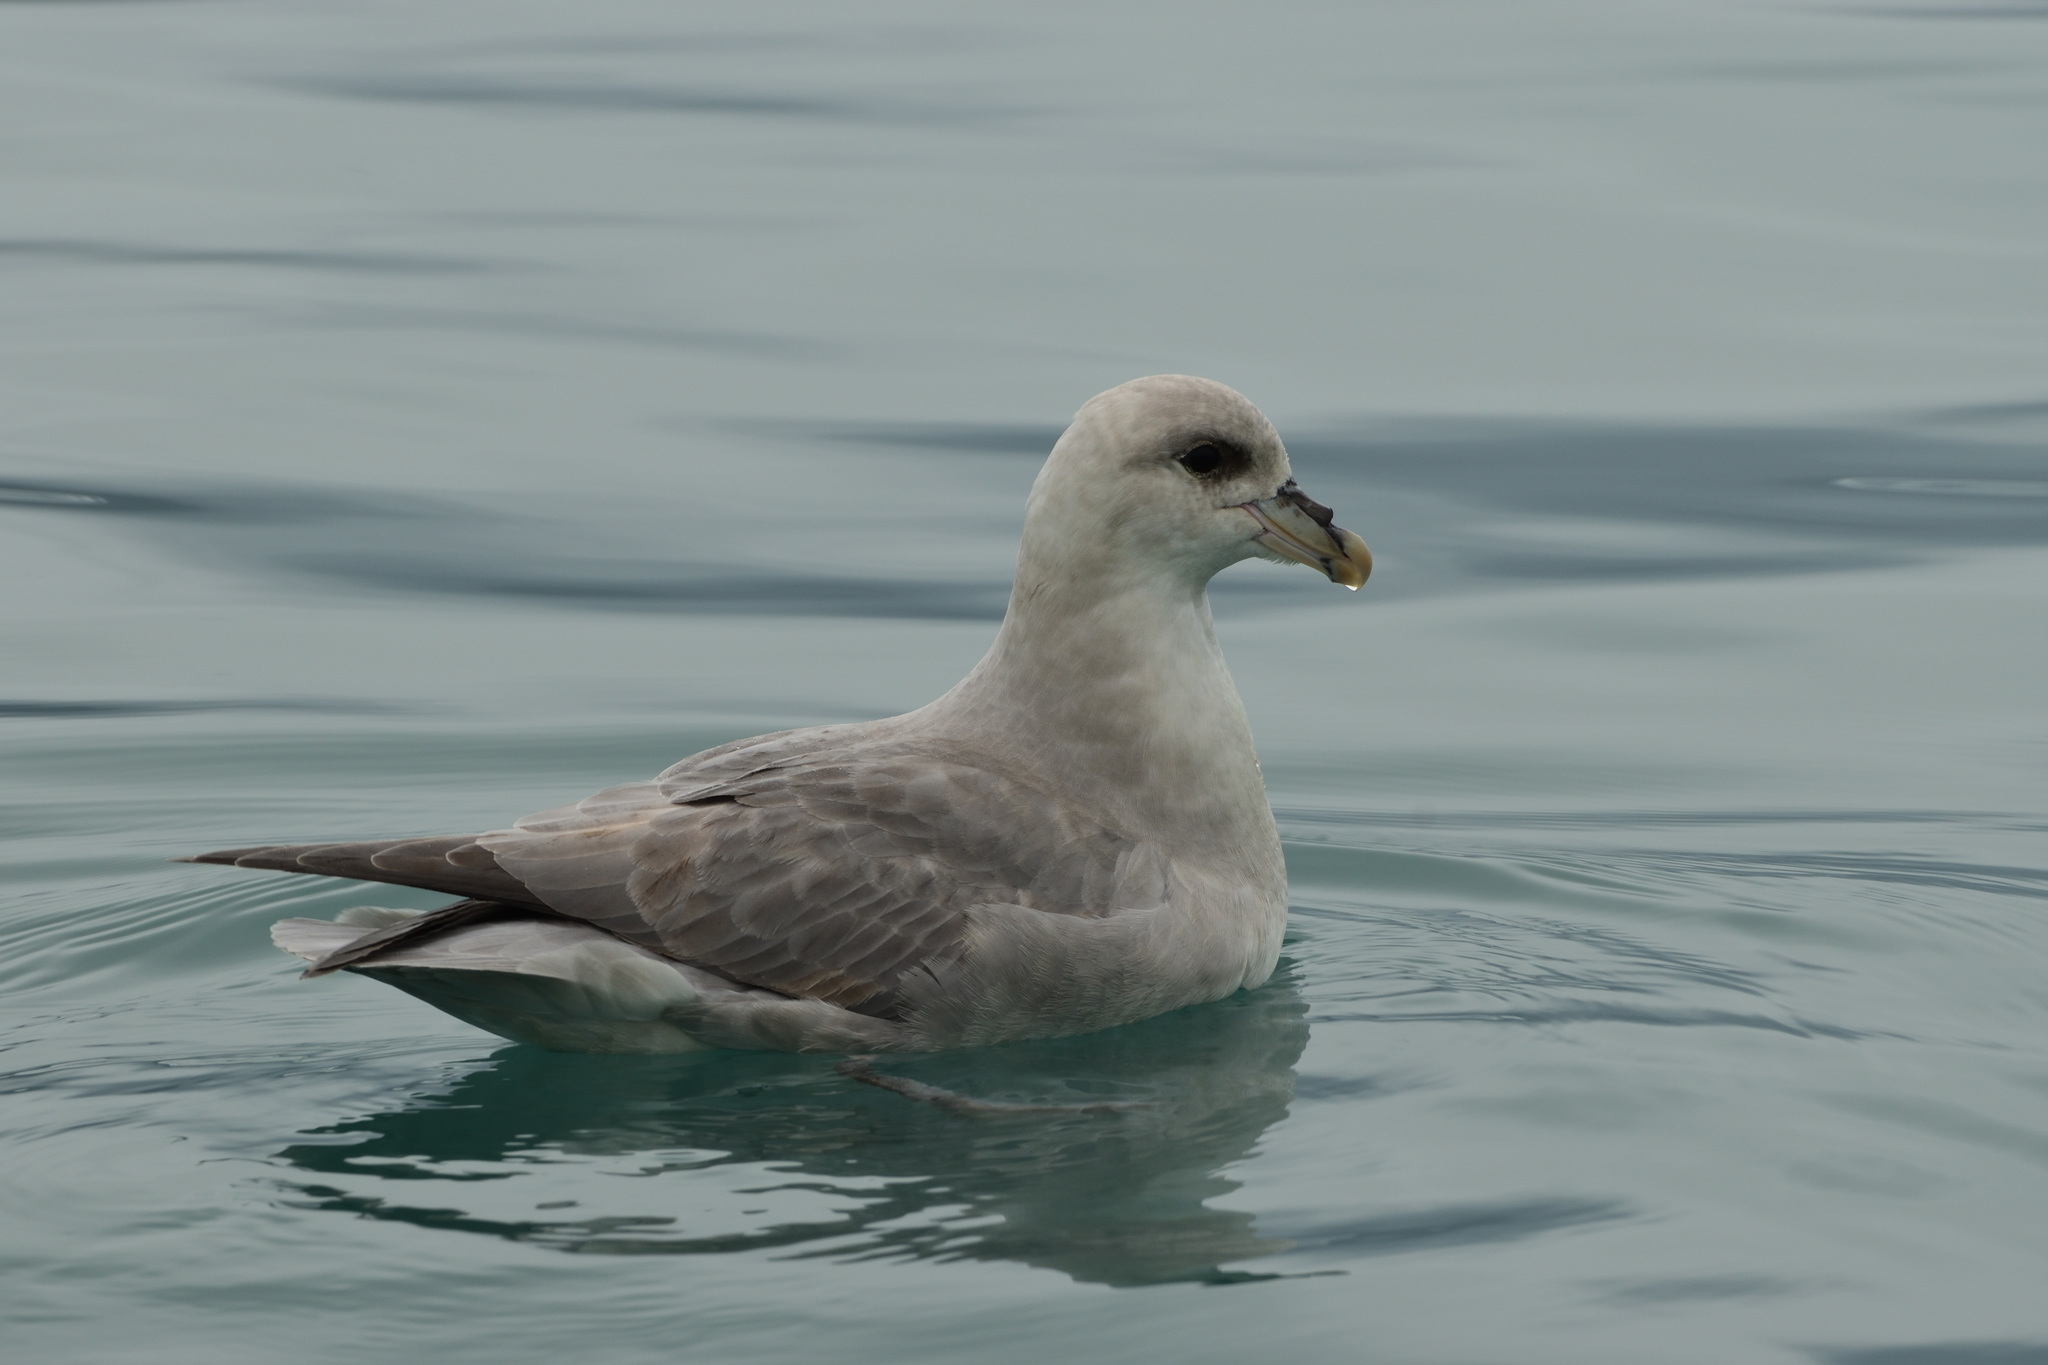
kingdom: Animalia
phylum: Chordata
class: Aves
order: Procellariiformes
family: Procellariidae
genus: Fulmarus
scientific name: Fulmarus glacialis
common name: Northern fulmar
